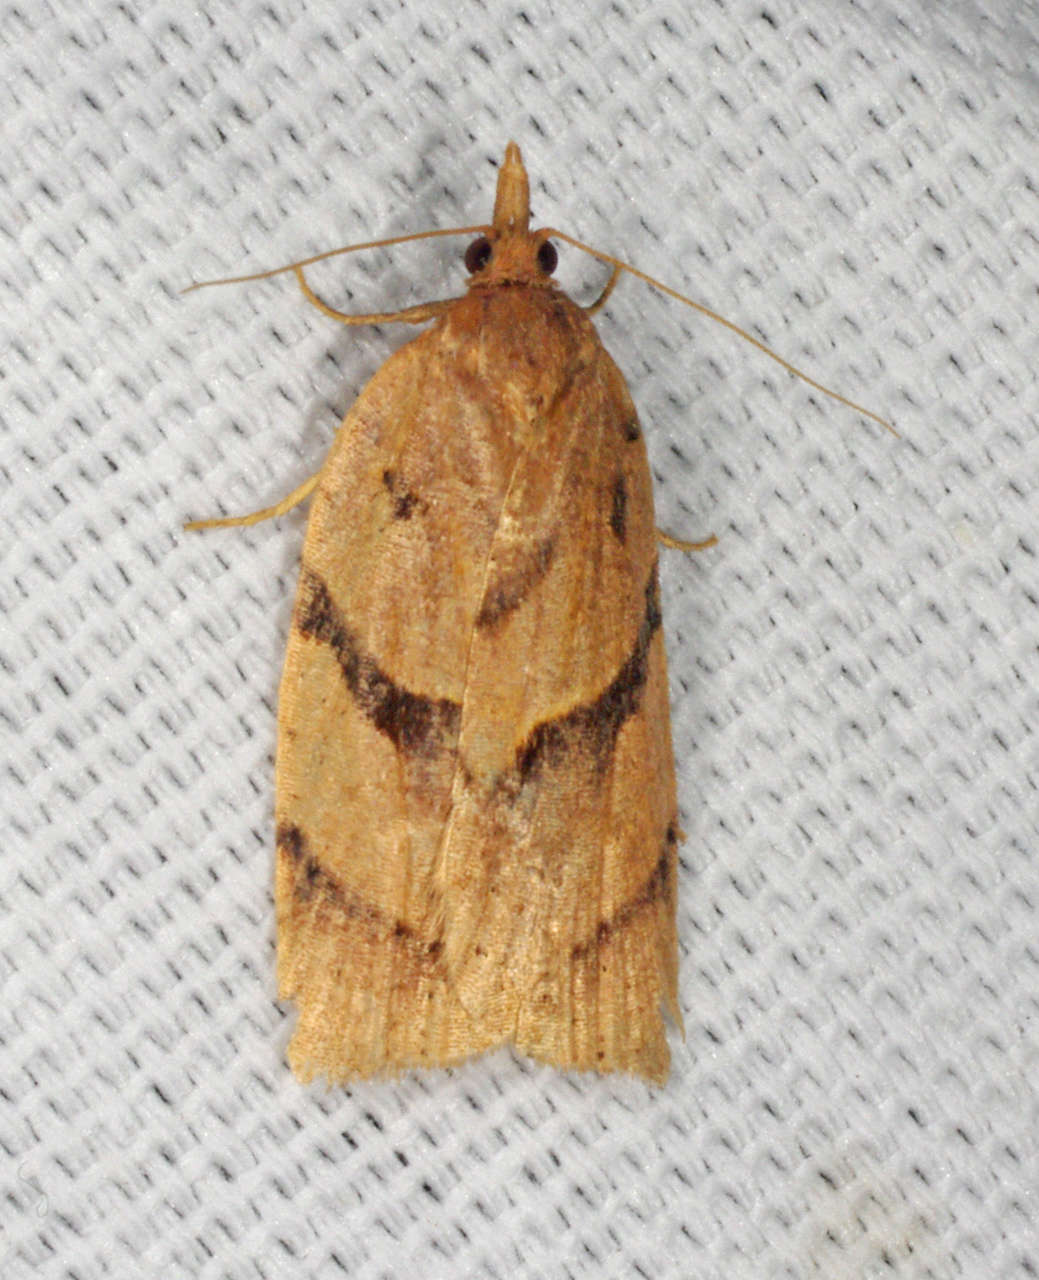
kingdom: Animalia
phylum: Arthropoda
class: Insecta
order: Lepidoptera
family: Tortricidae
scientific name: Tortricidae
